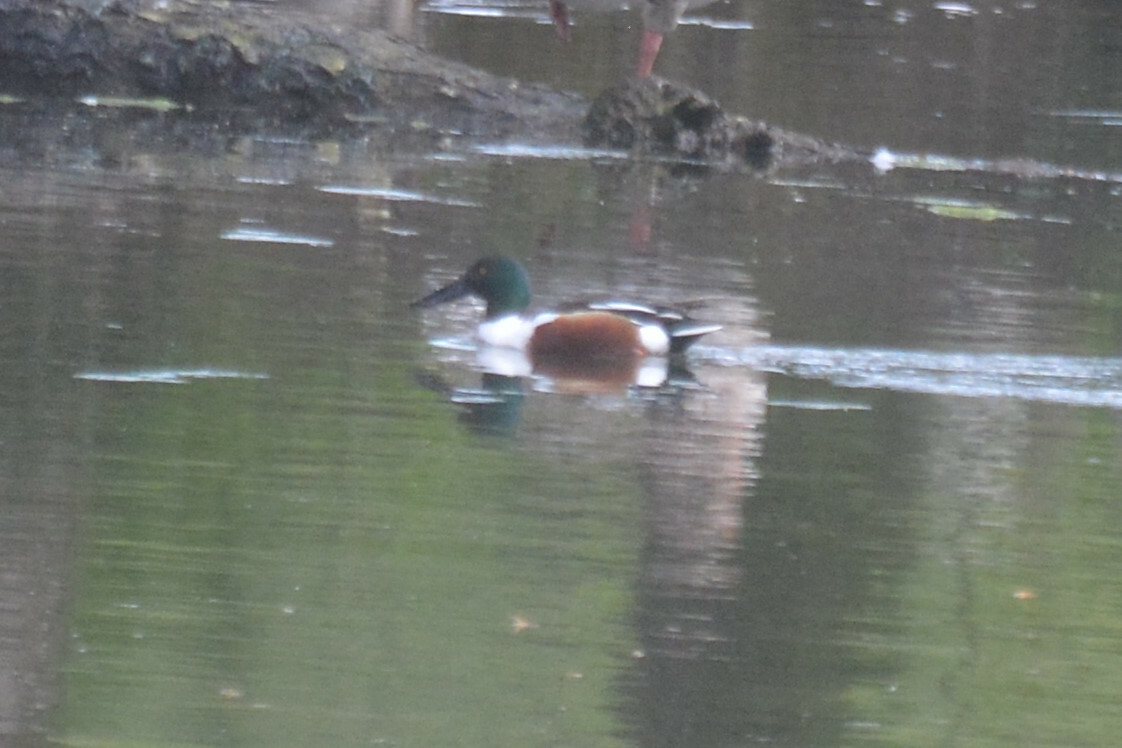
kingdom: Animalia
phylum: Chordata
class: Aves
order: Anseriformes
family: Anatidae
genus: Spatula
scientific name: Spatula clypeata
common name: Northern shoveler
